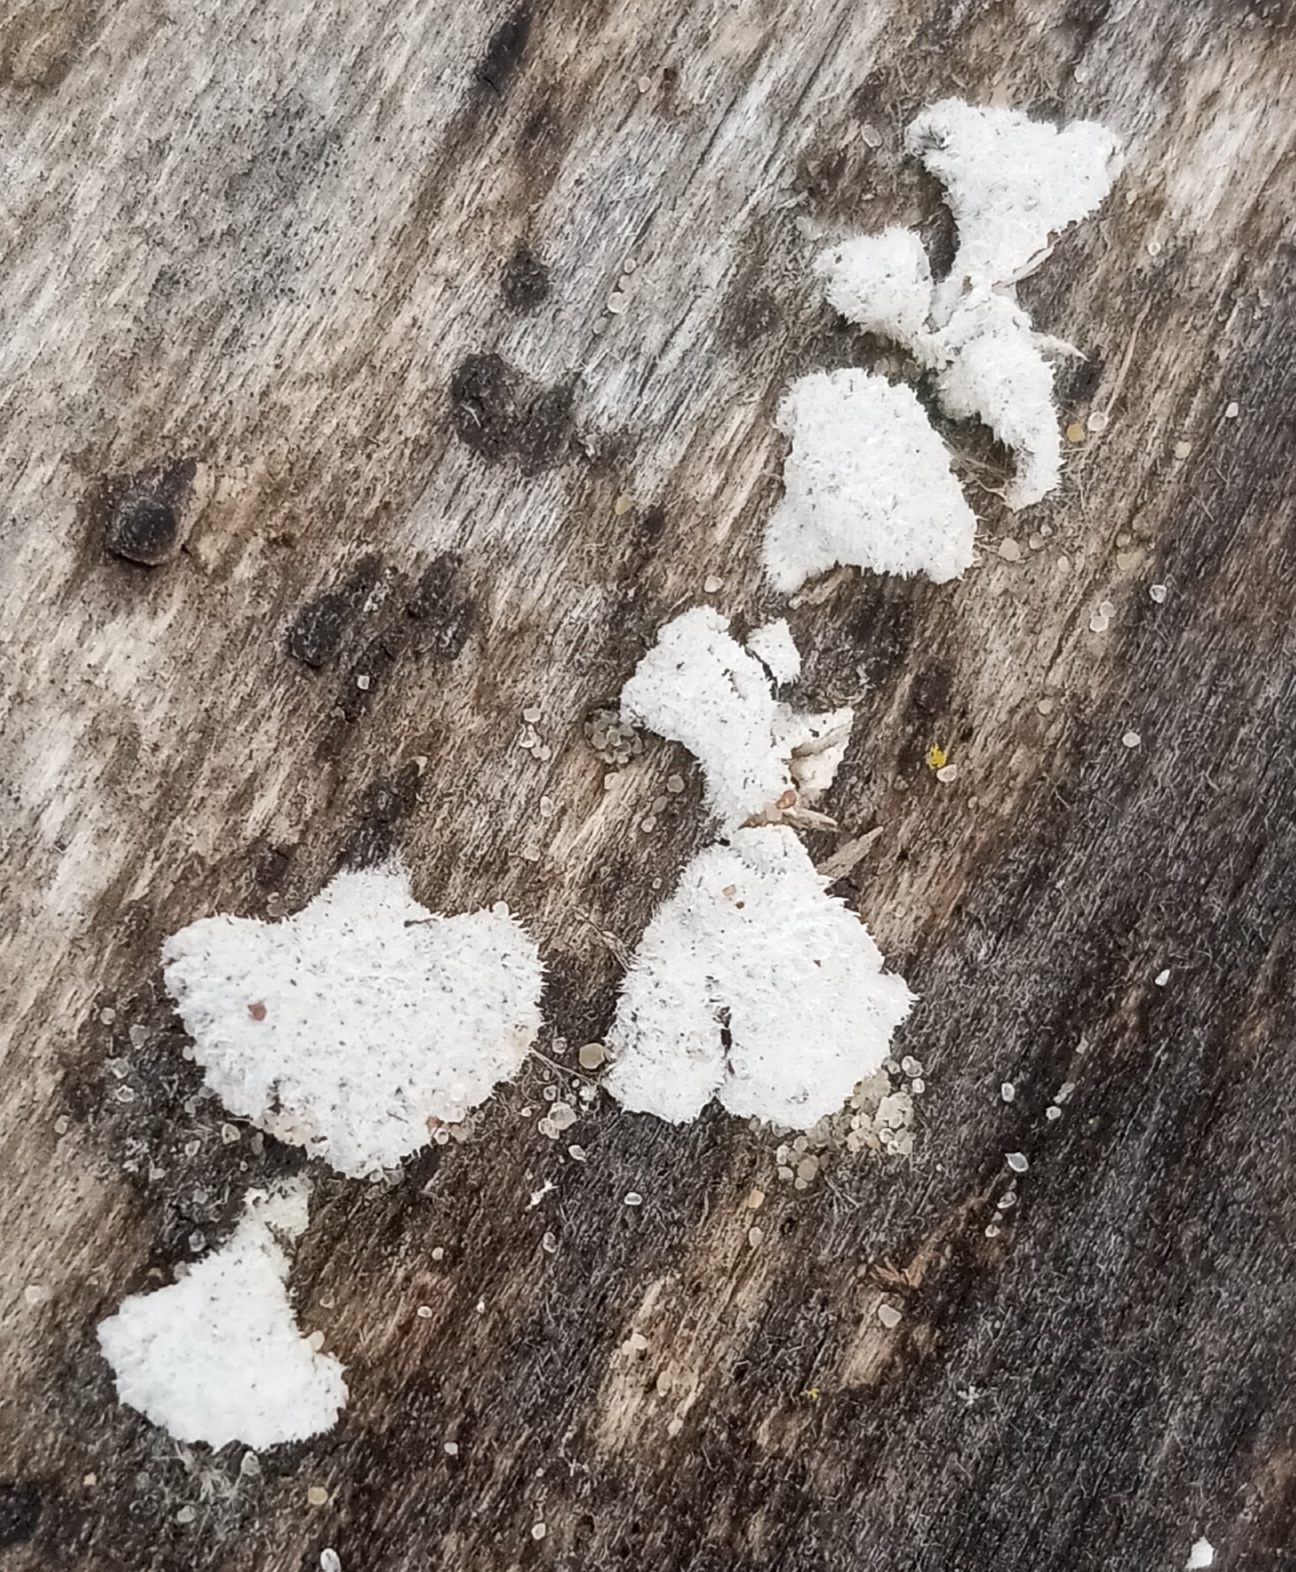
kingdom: Fungi
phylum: Basidiomycota
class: Agaricomycetes
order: Agaricales
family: Schizophyllaceae
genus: Schizophyllum
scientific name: Schizophyllum commune
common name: Common porecrust
